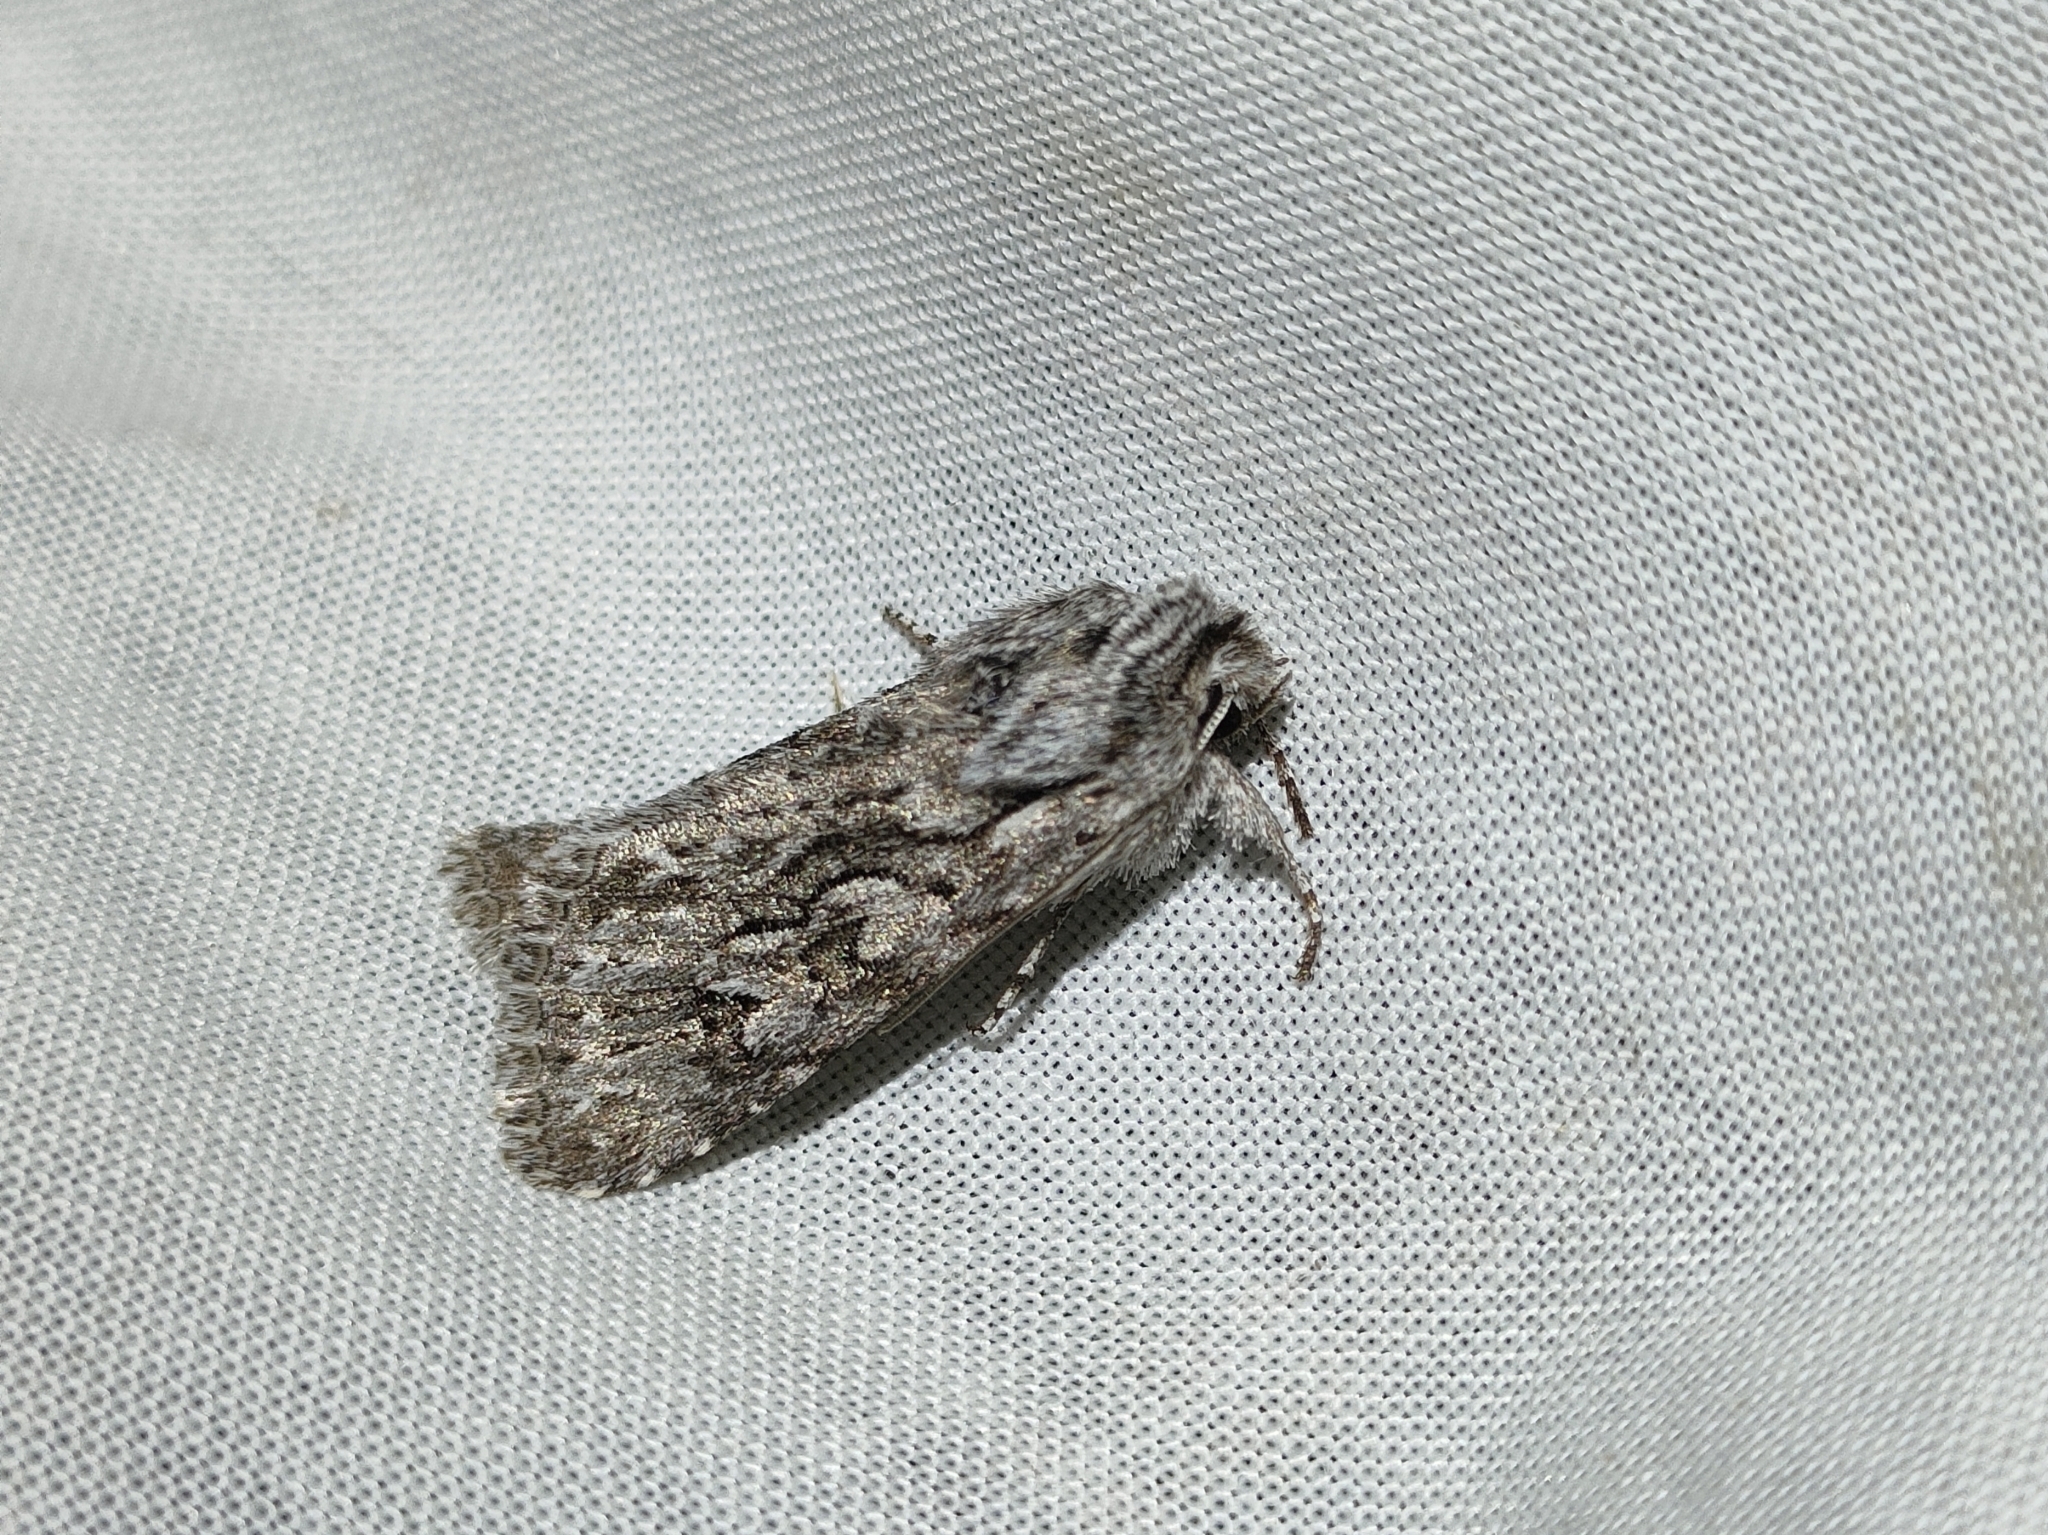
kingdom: Animalia
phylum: Arthropoda
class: Insecta
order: Lepidoptera
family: Noctuidae
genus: Xylocampa
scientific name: Xylocampa areola
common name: Early grey
